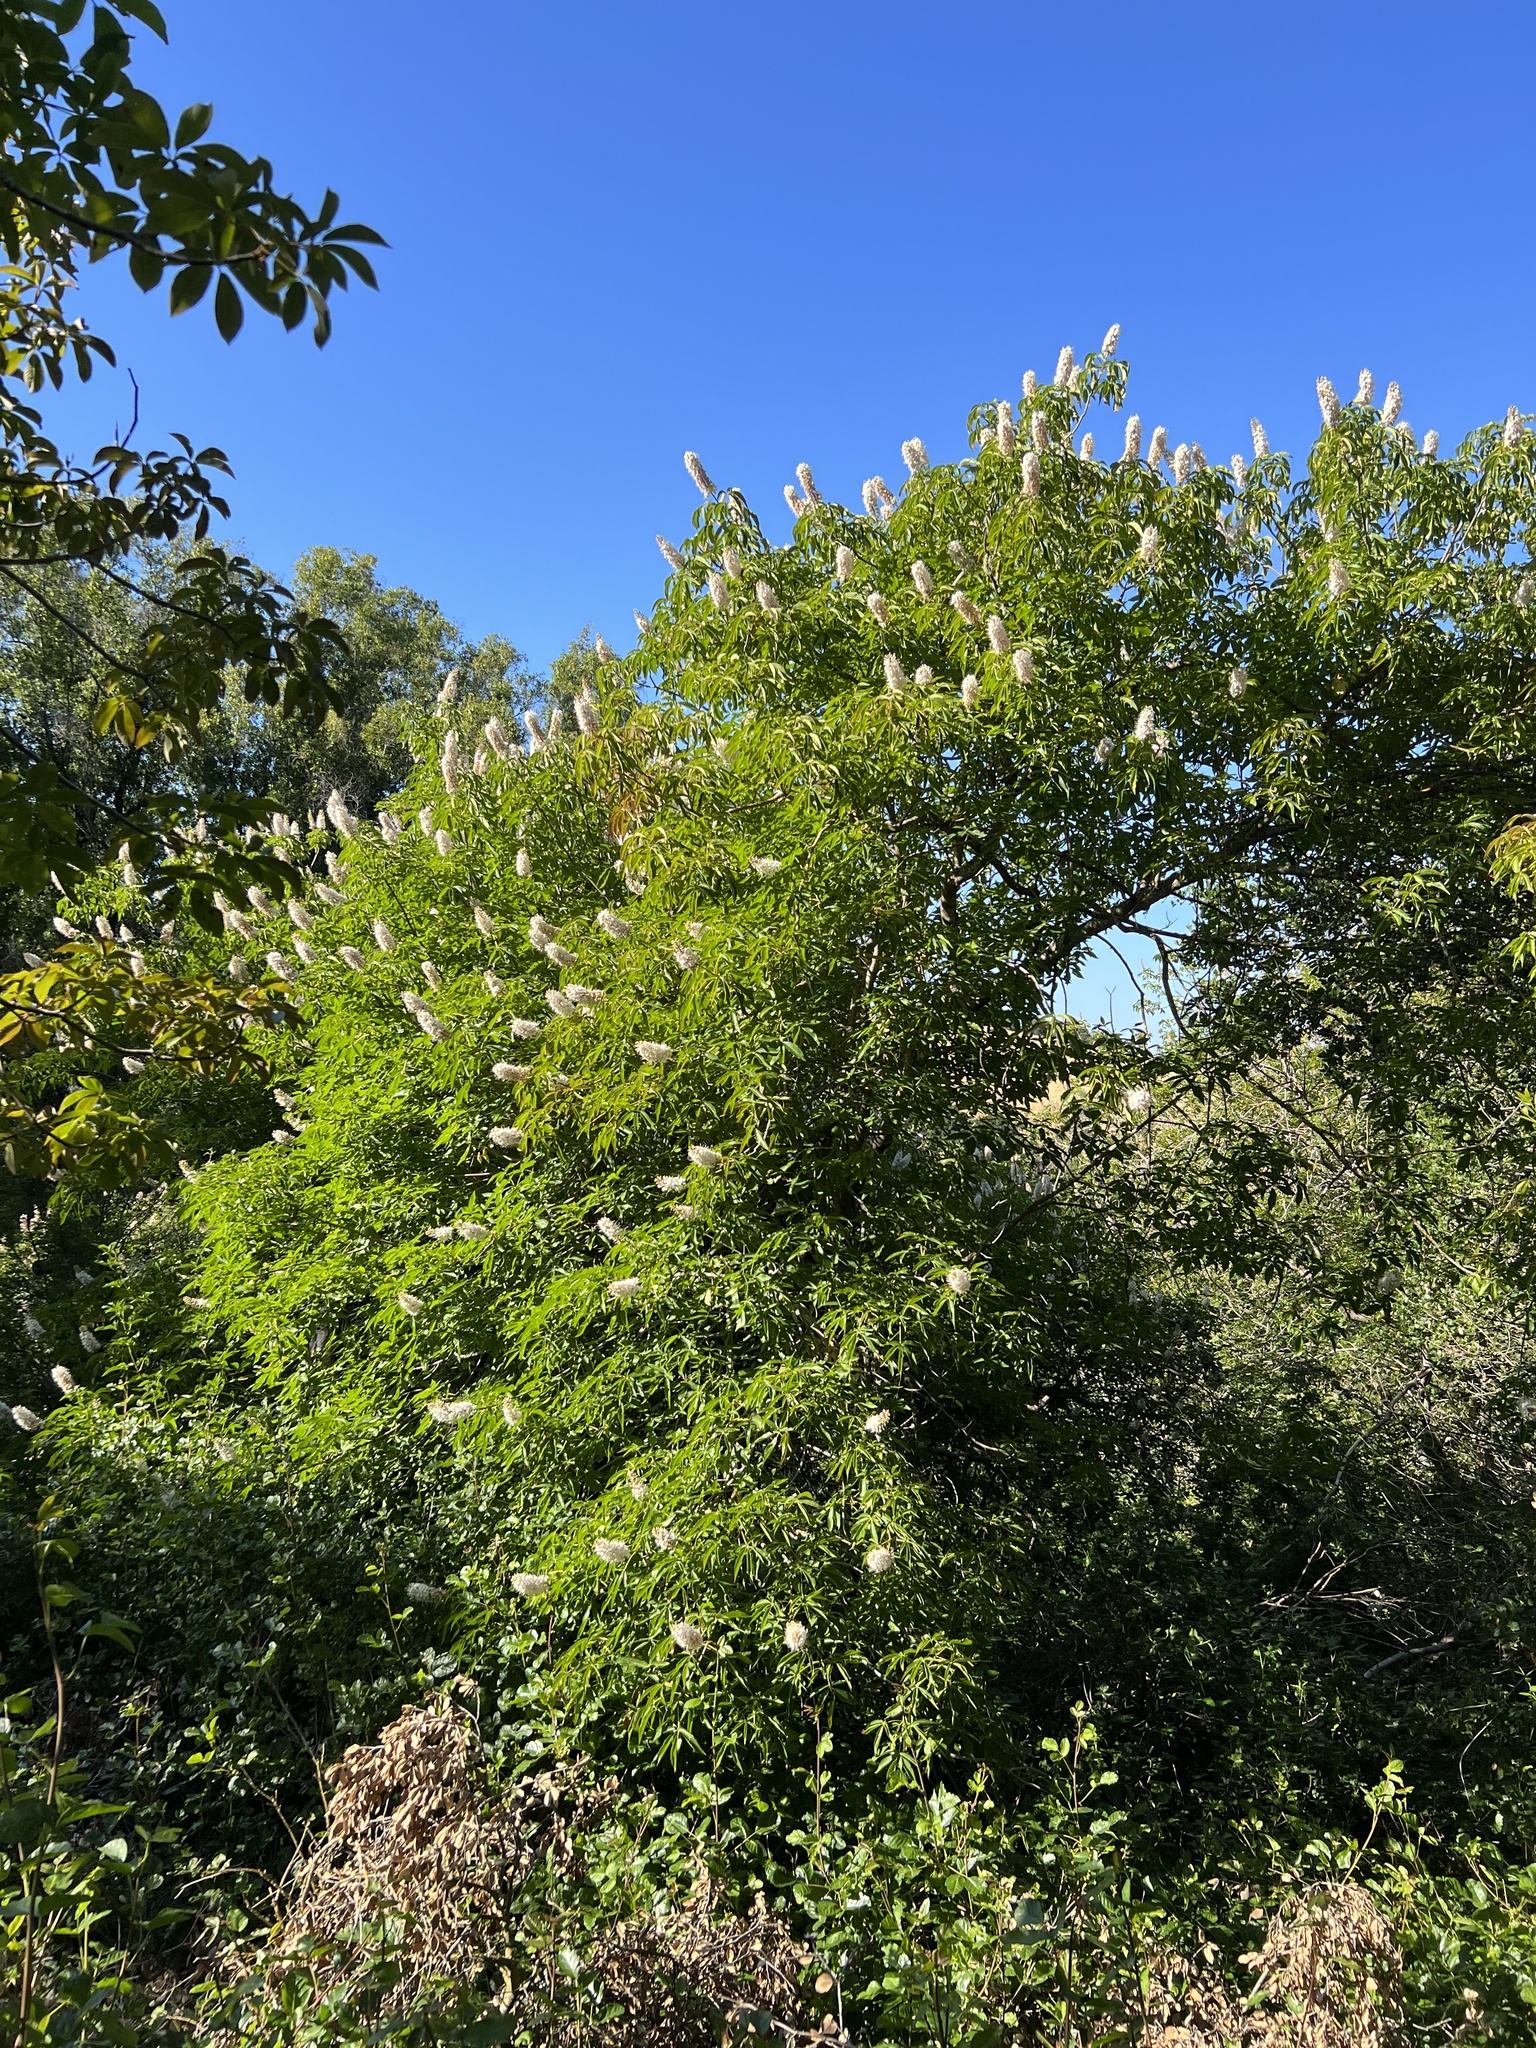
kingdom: Plantae
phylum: Tracheophyta
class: Magnoliopsida
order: Sapindales
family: Sapindaceae
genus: Aesculus
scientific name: Aesculus californica
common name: California buckeye
